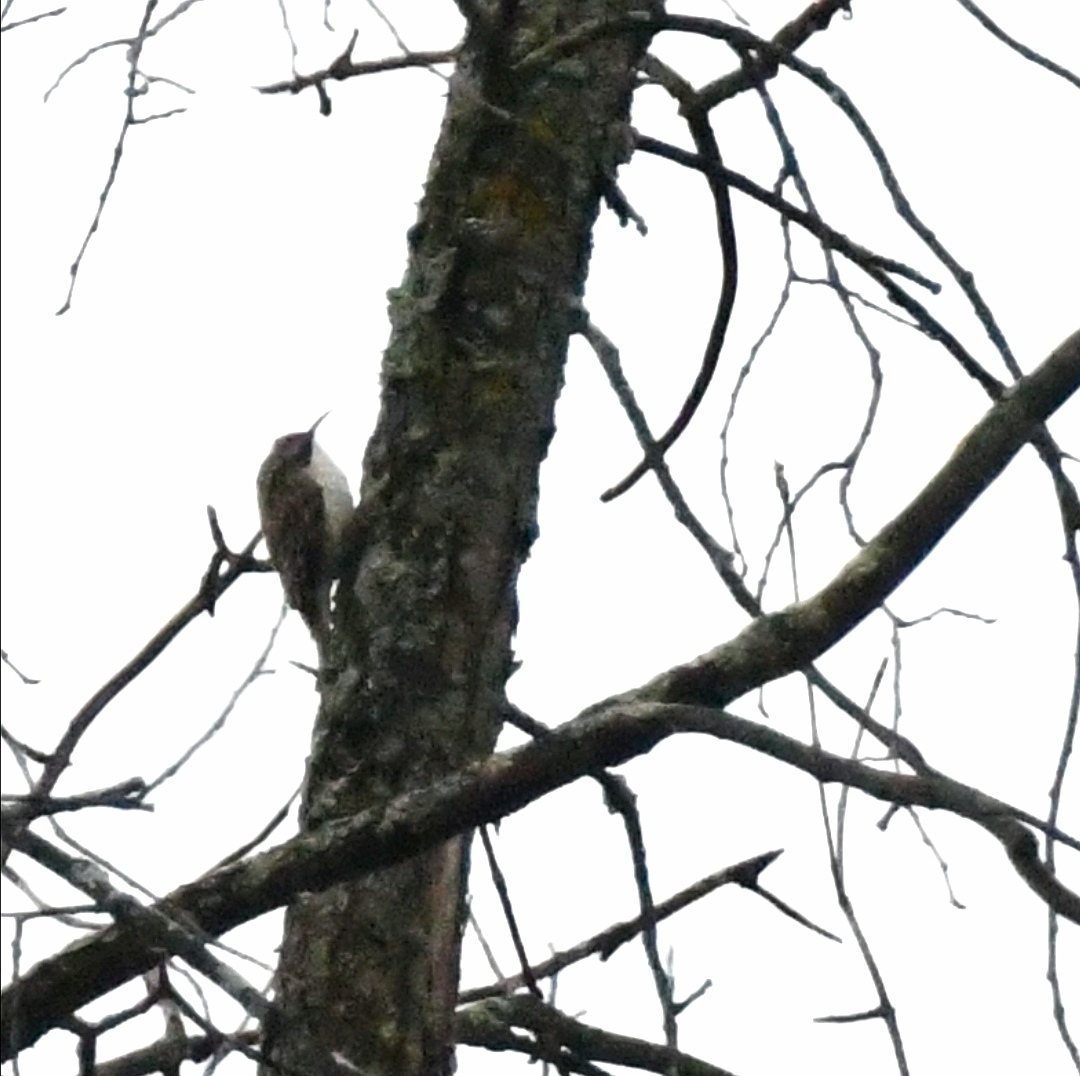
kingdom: Animalia
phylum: Chordata
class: Aves
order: Passeriformes
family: Certhiidae
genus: Certhia
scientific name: Certhia americana
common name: Brown creeper
